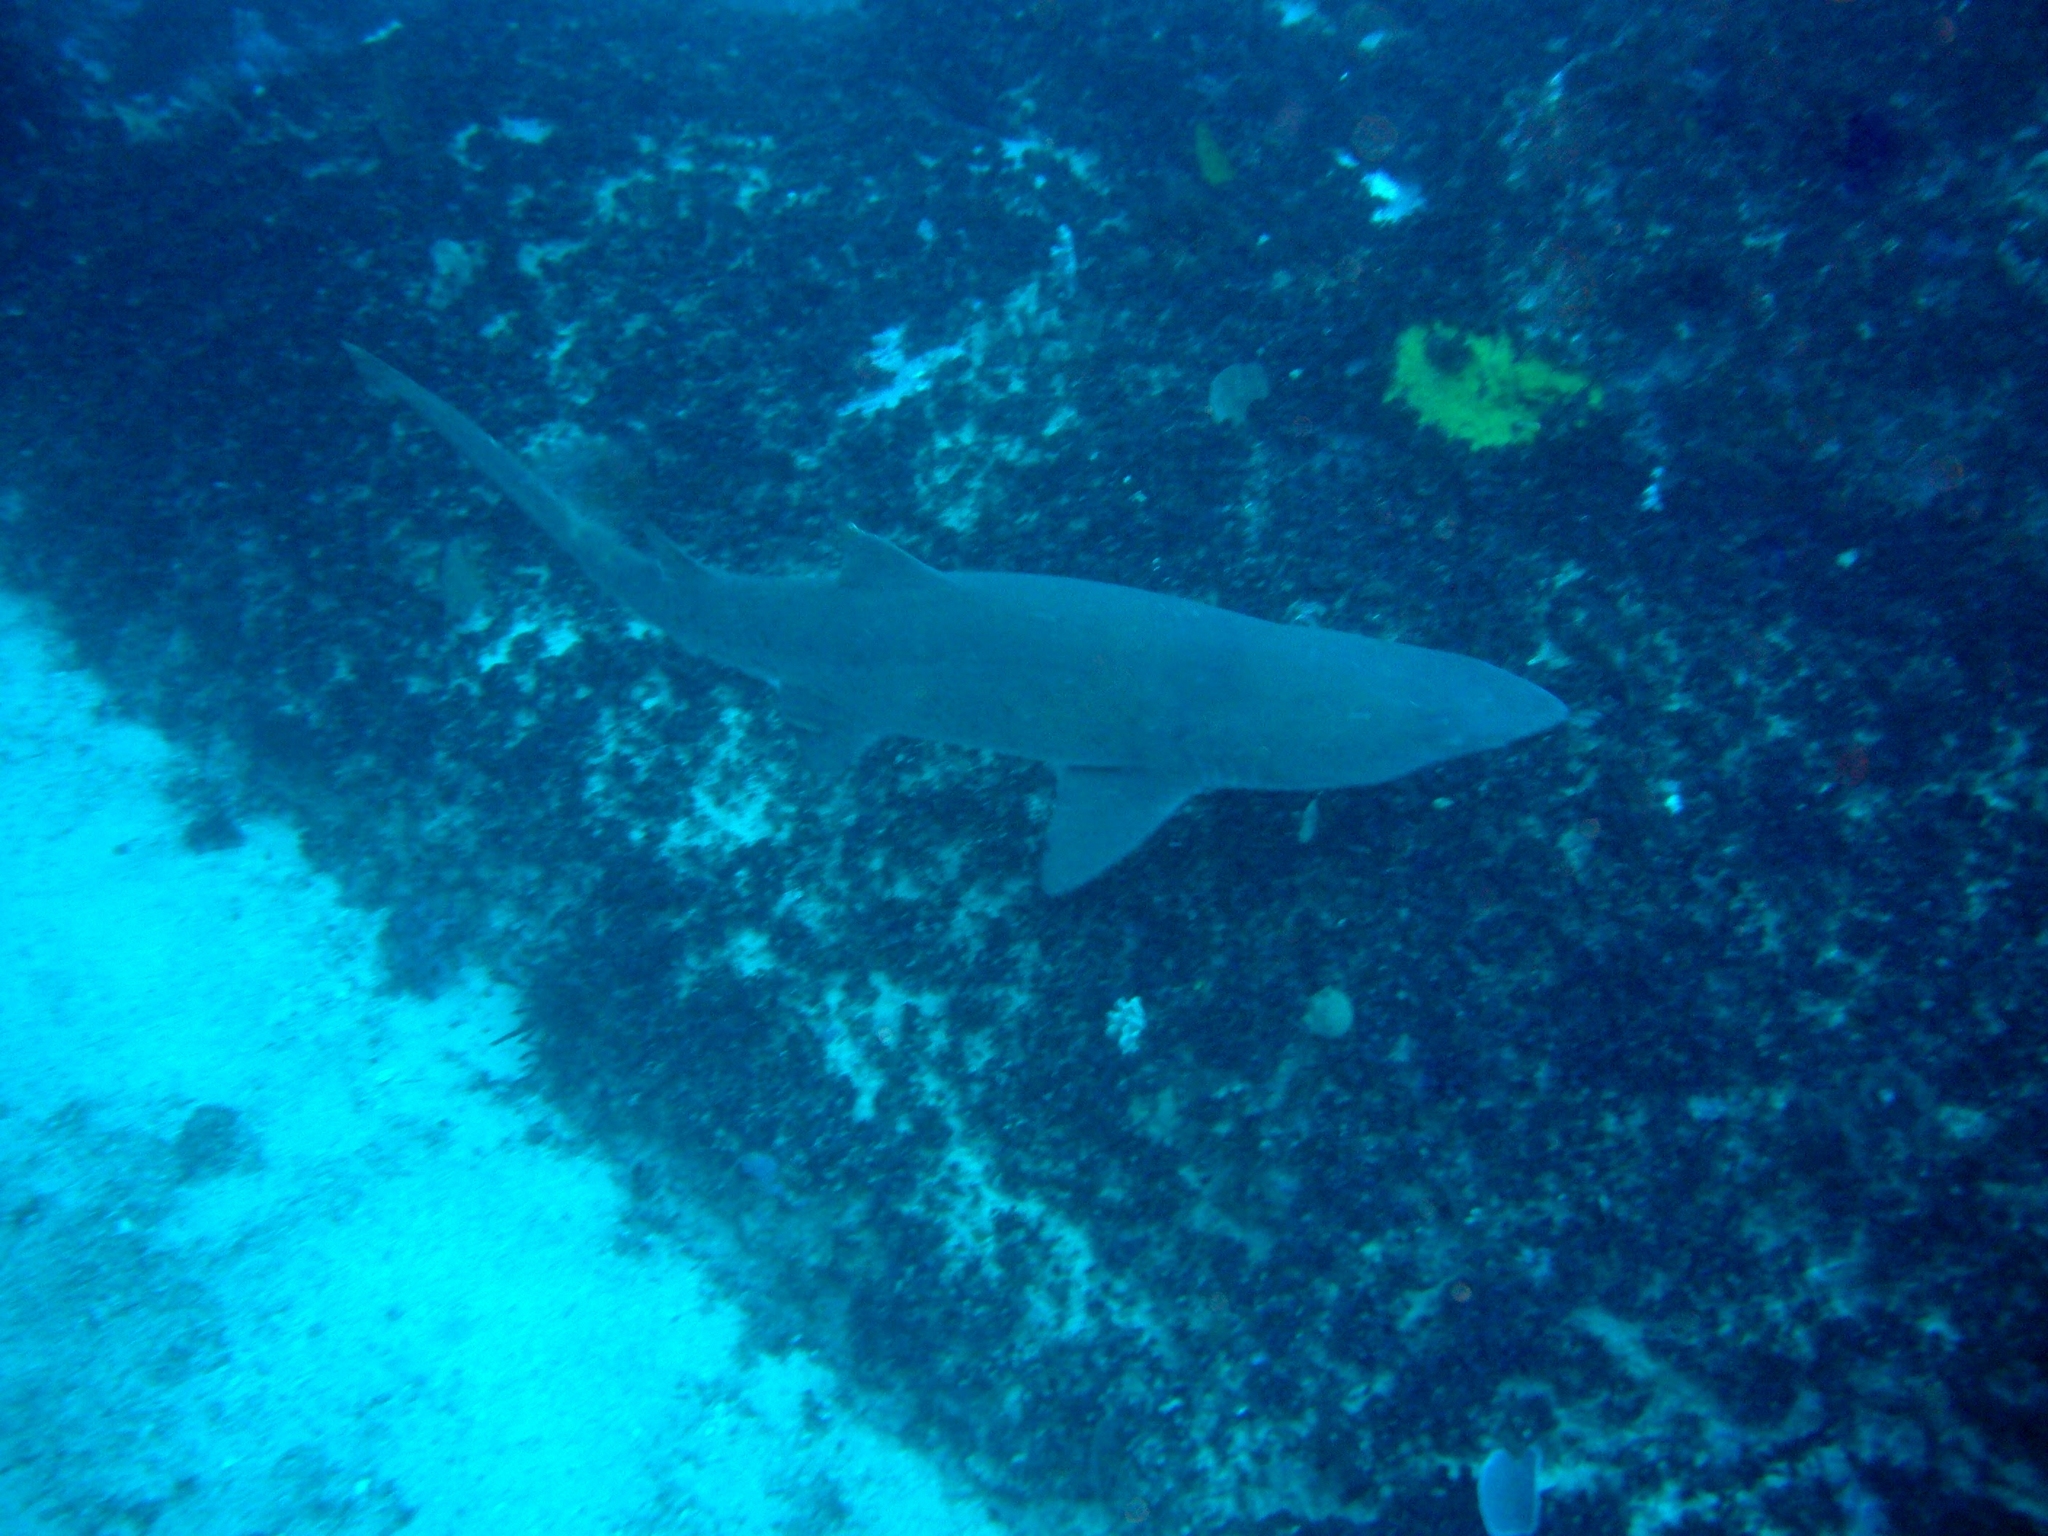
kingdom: Animalia
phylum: Chordata
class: Elasmobranchii
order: Lamniformes
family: Odontaspididae
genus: Carcharias
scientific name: Carcharias taurus
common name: Sand shark
